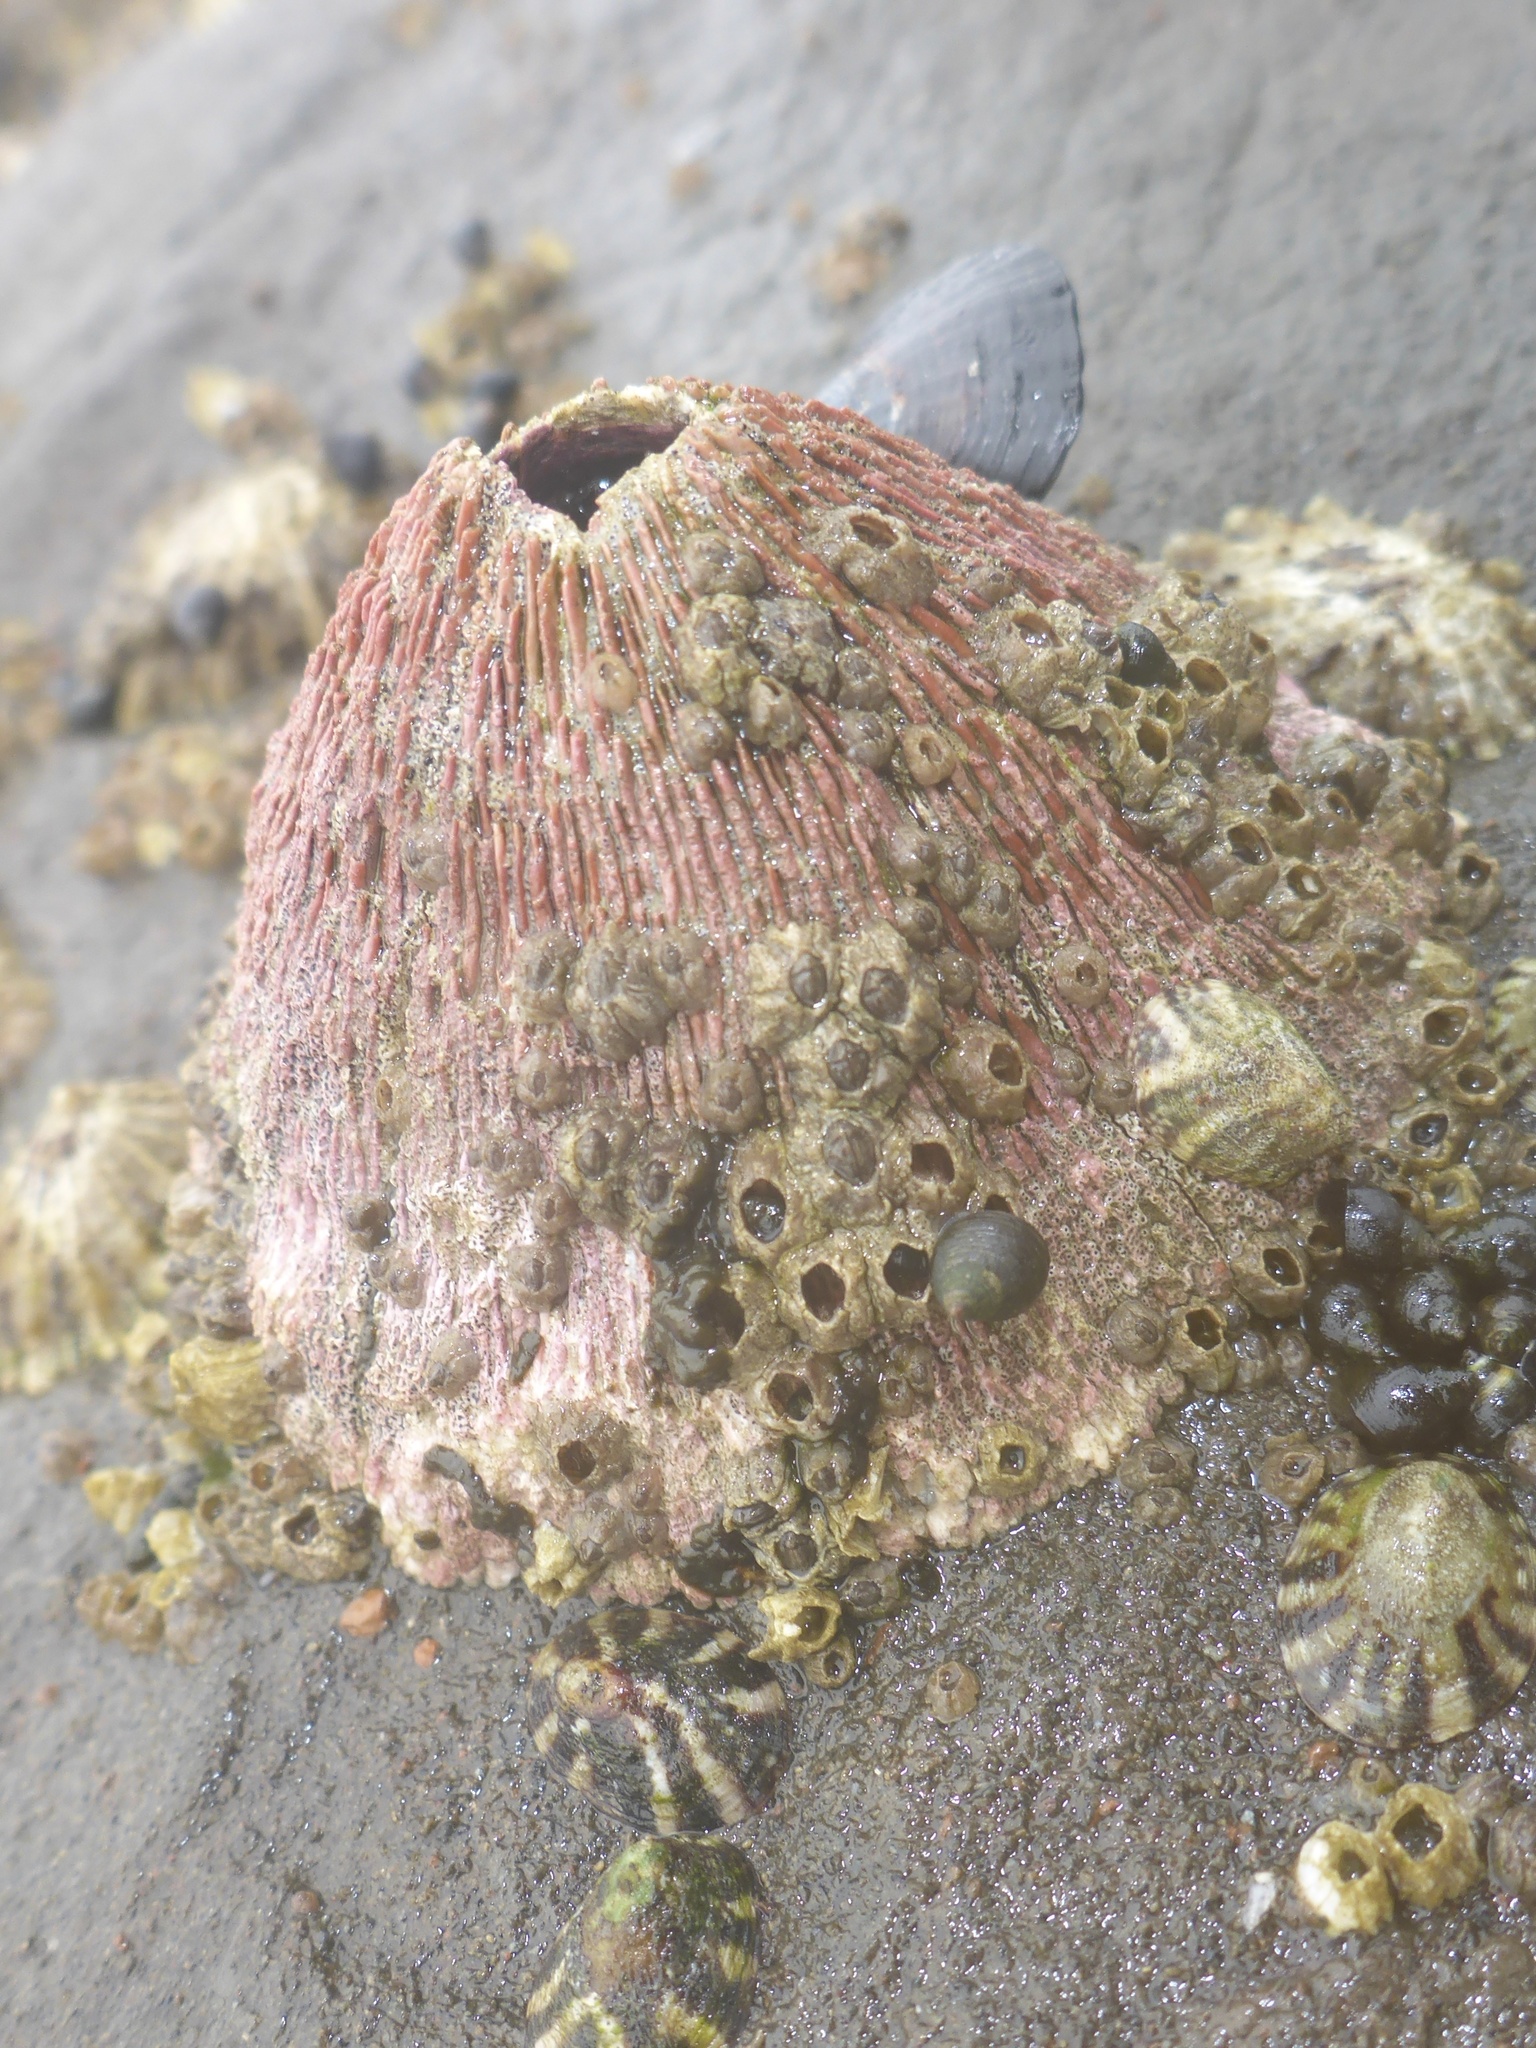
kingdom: Animalia
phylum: Arthropoda
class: Maxillopoda
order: Sessilia
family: Tetraclitidae
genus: Tetraclita
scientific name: Tetraclita rubescens
